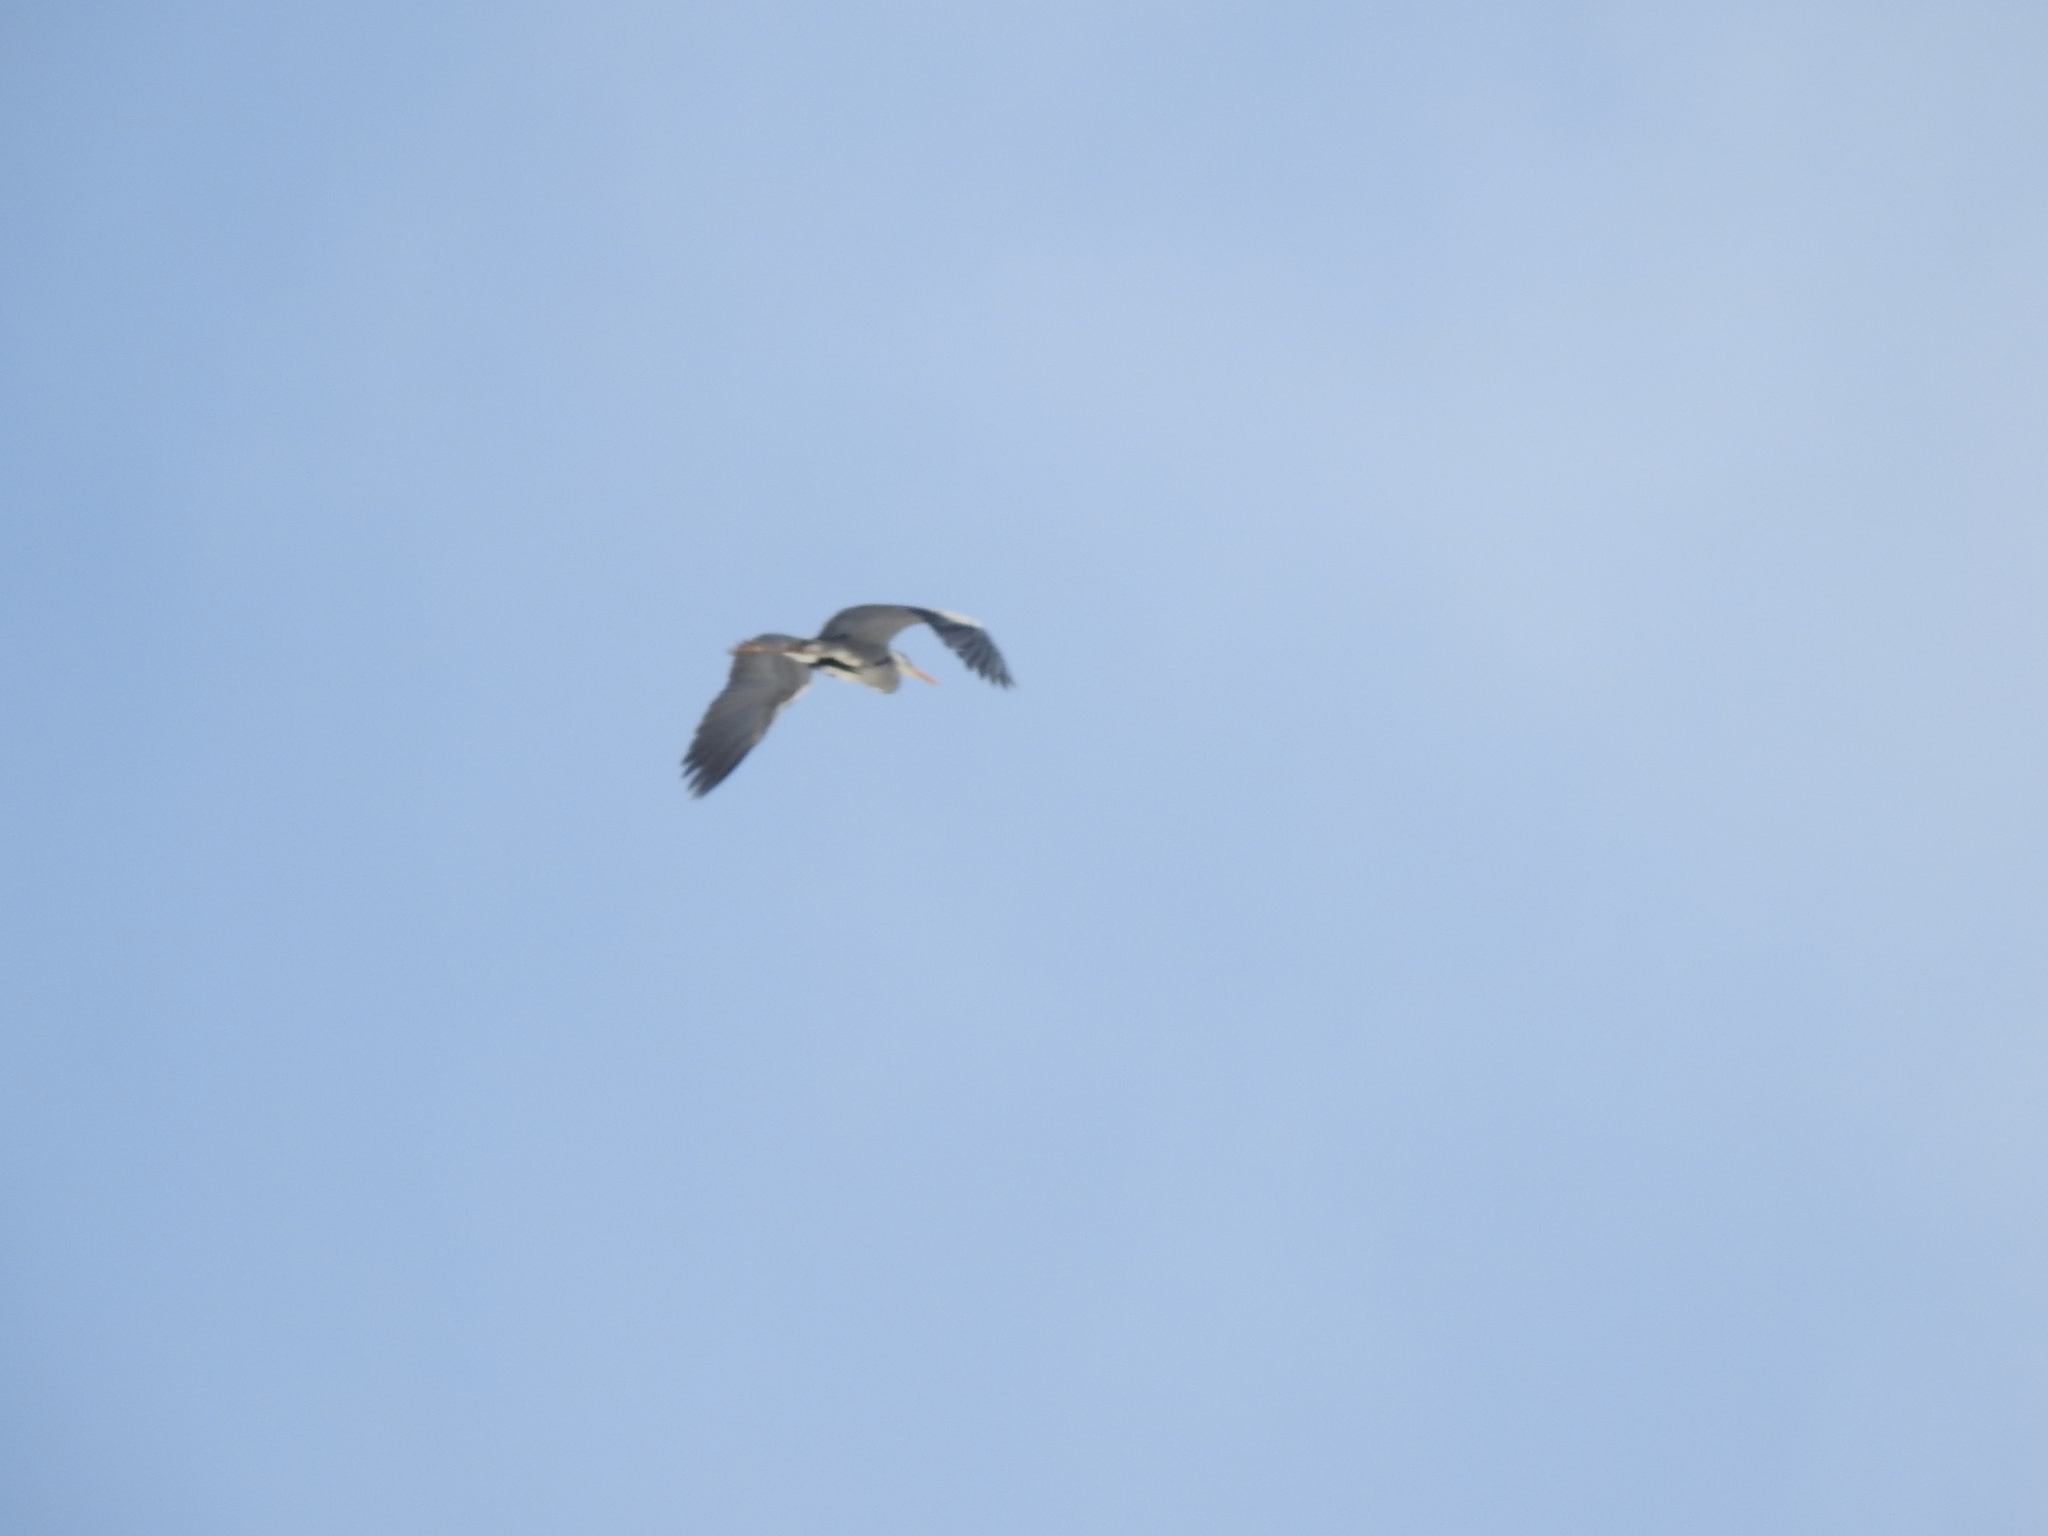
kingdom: Animalia
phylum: Chordata
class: Aves
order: Pelecaniformes
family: Ardeidae
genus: Ardea
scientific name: Ardea cinerea
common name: Grey heron
